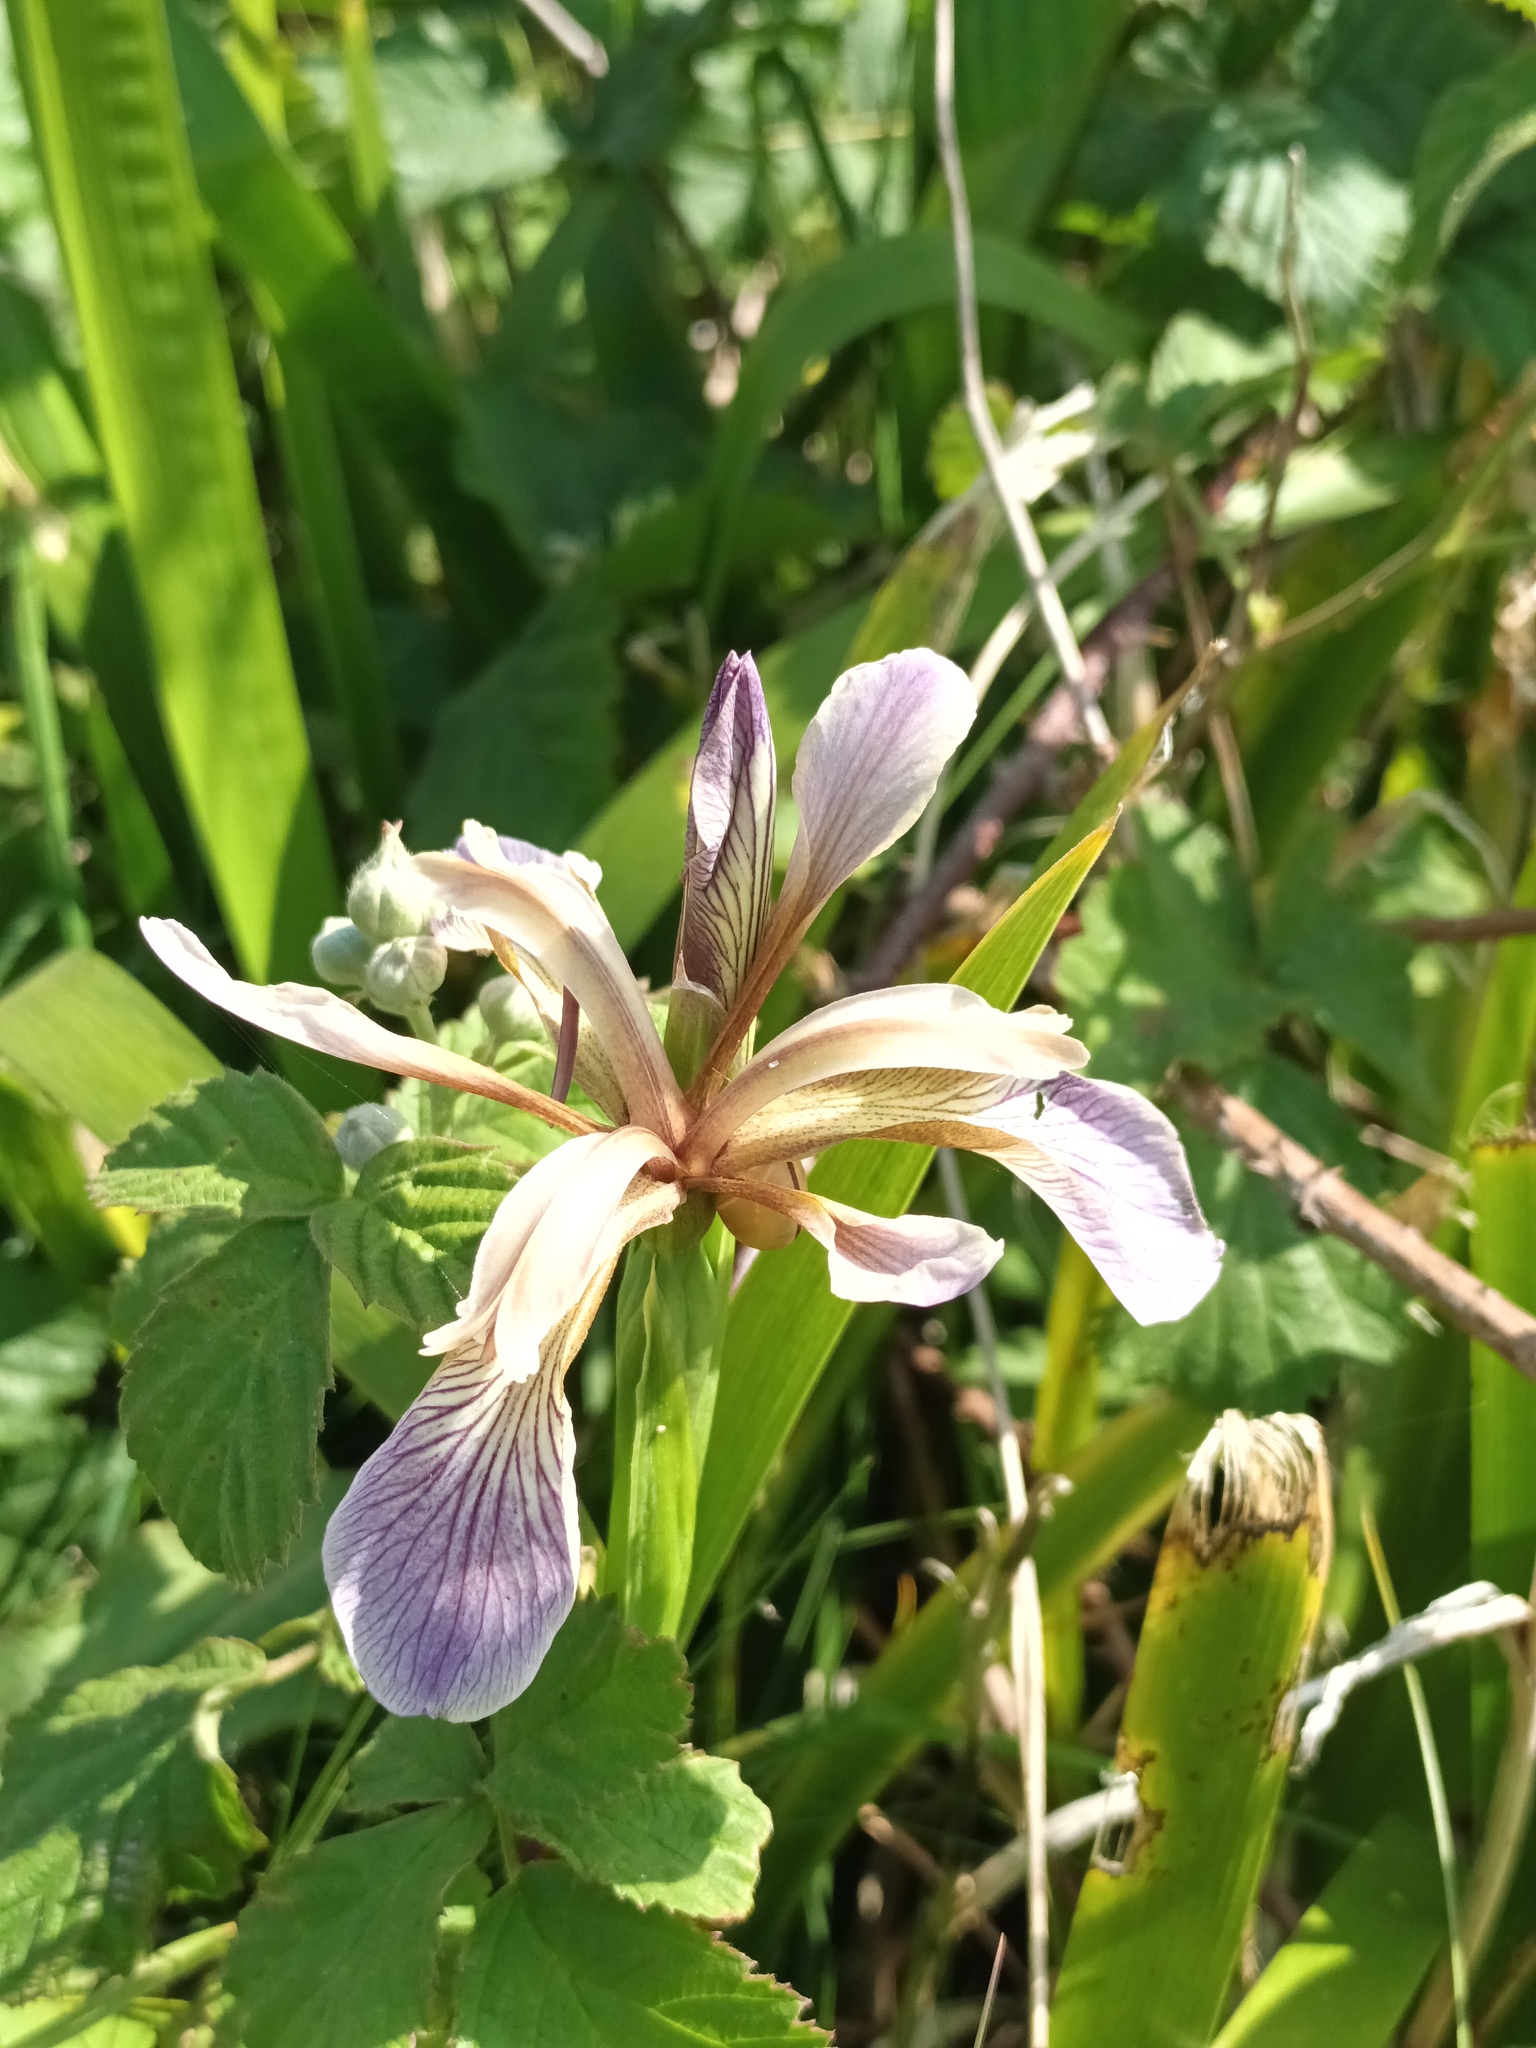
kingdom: Plantae
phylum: Tracheophyta
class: Liliopsida
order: Asparagales
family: Iridaceae
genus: Iris
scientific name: Iris foetidissima
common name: Stinking iris
